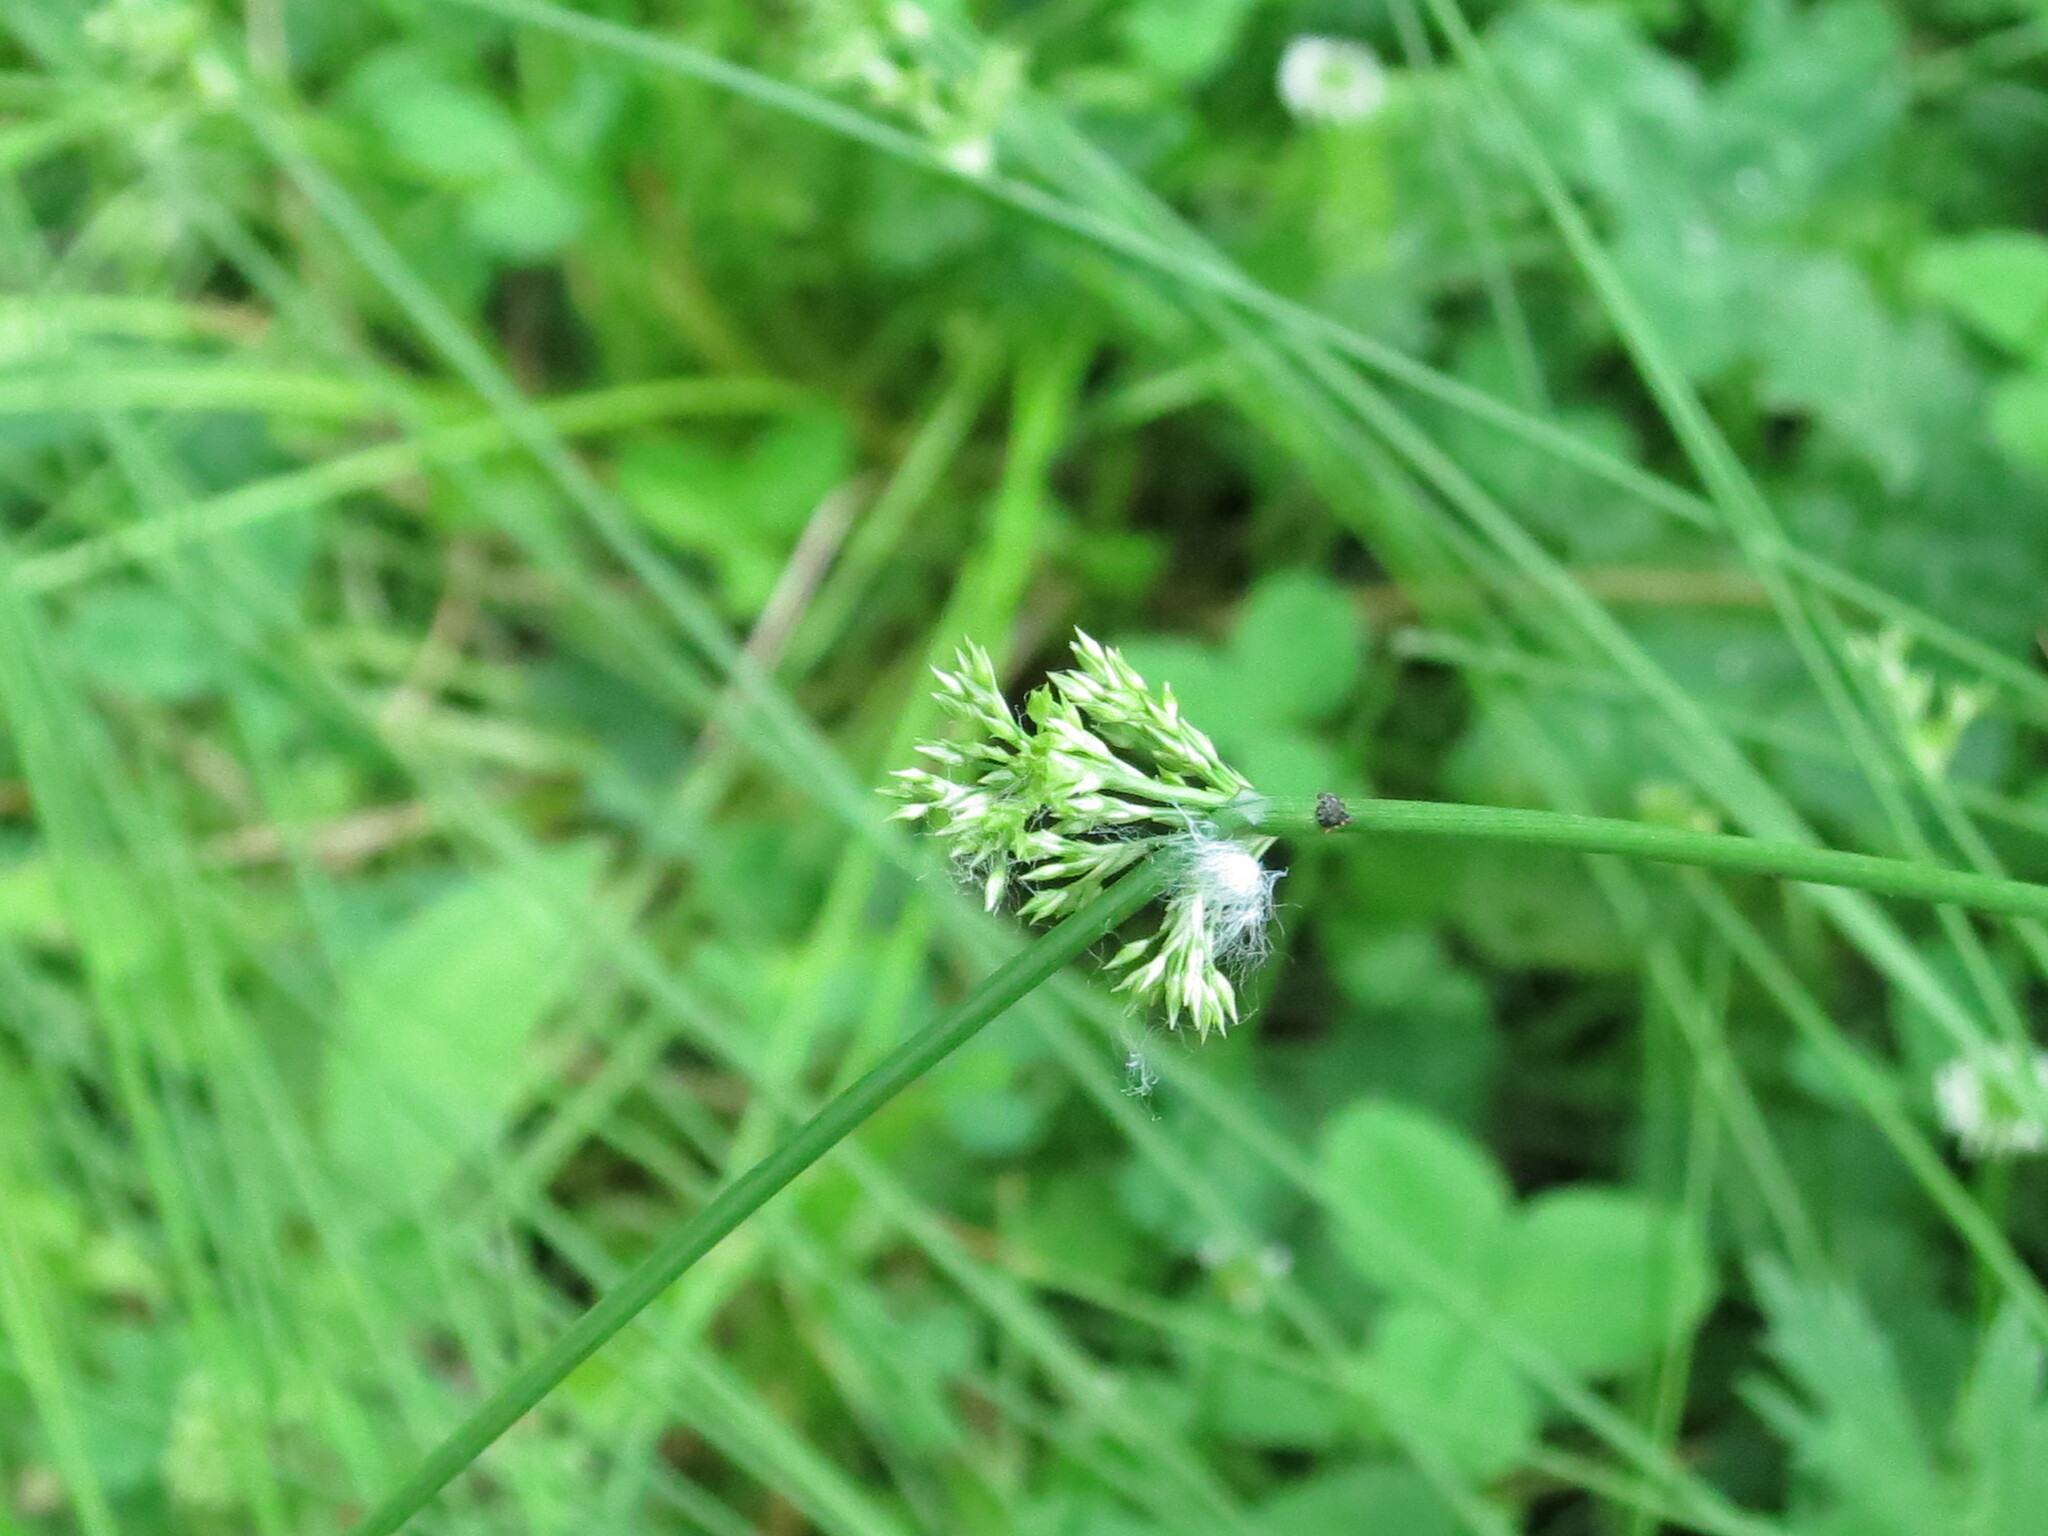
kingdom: Plantae
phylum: Tracheophyta
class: Liliopsida
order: Poales
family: Juncaceae
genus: Juncus
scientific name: Juncus decipiens
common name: Lamp rush
